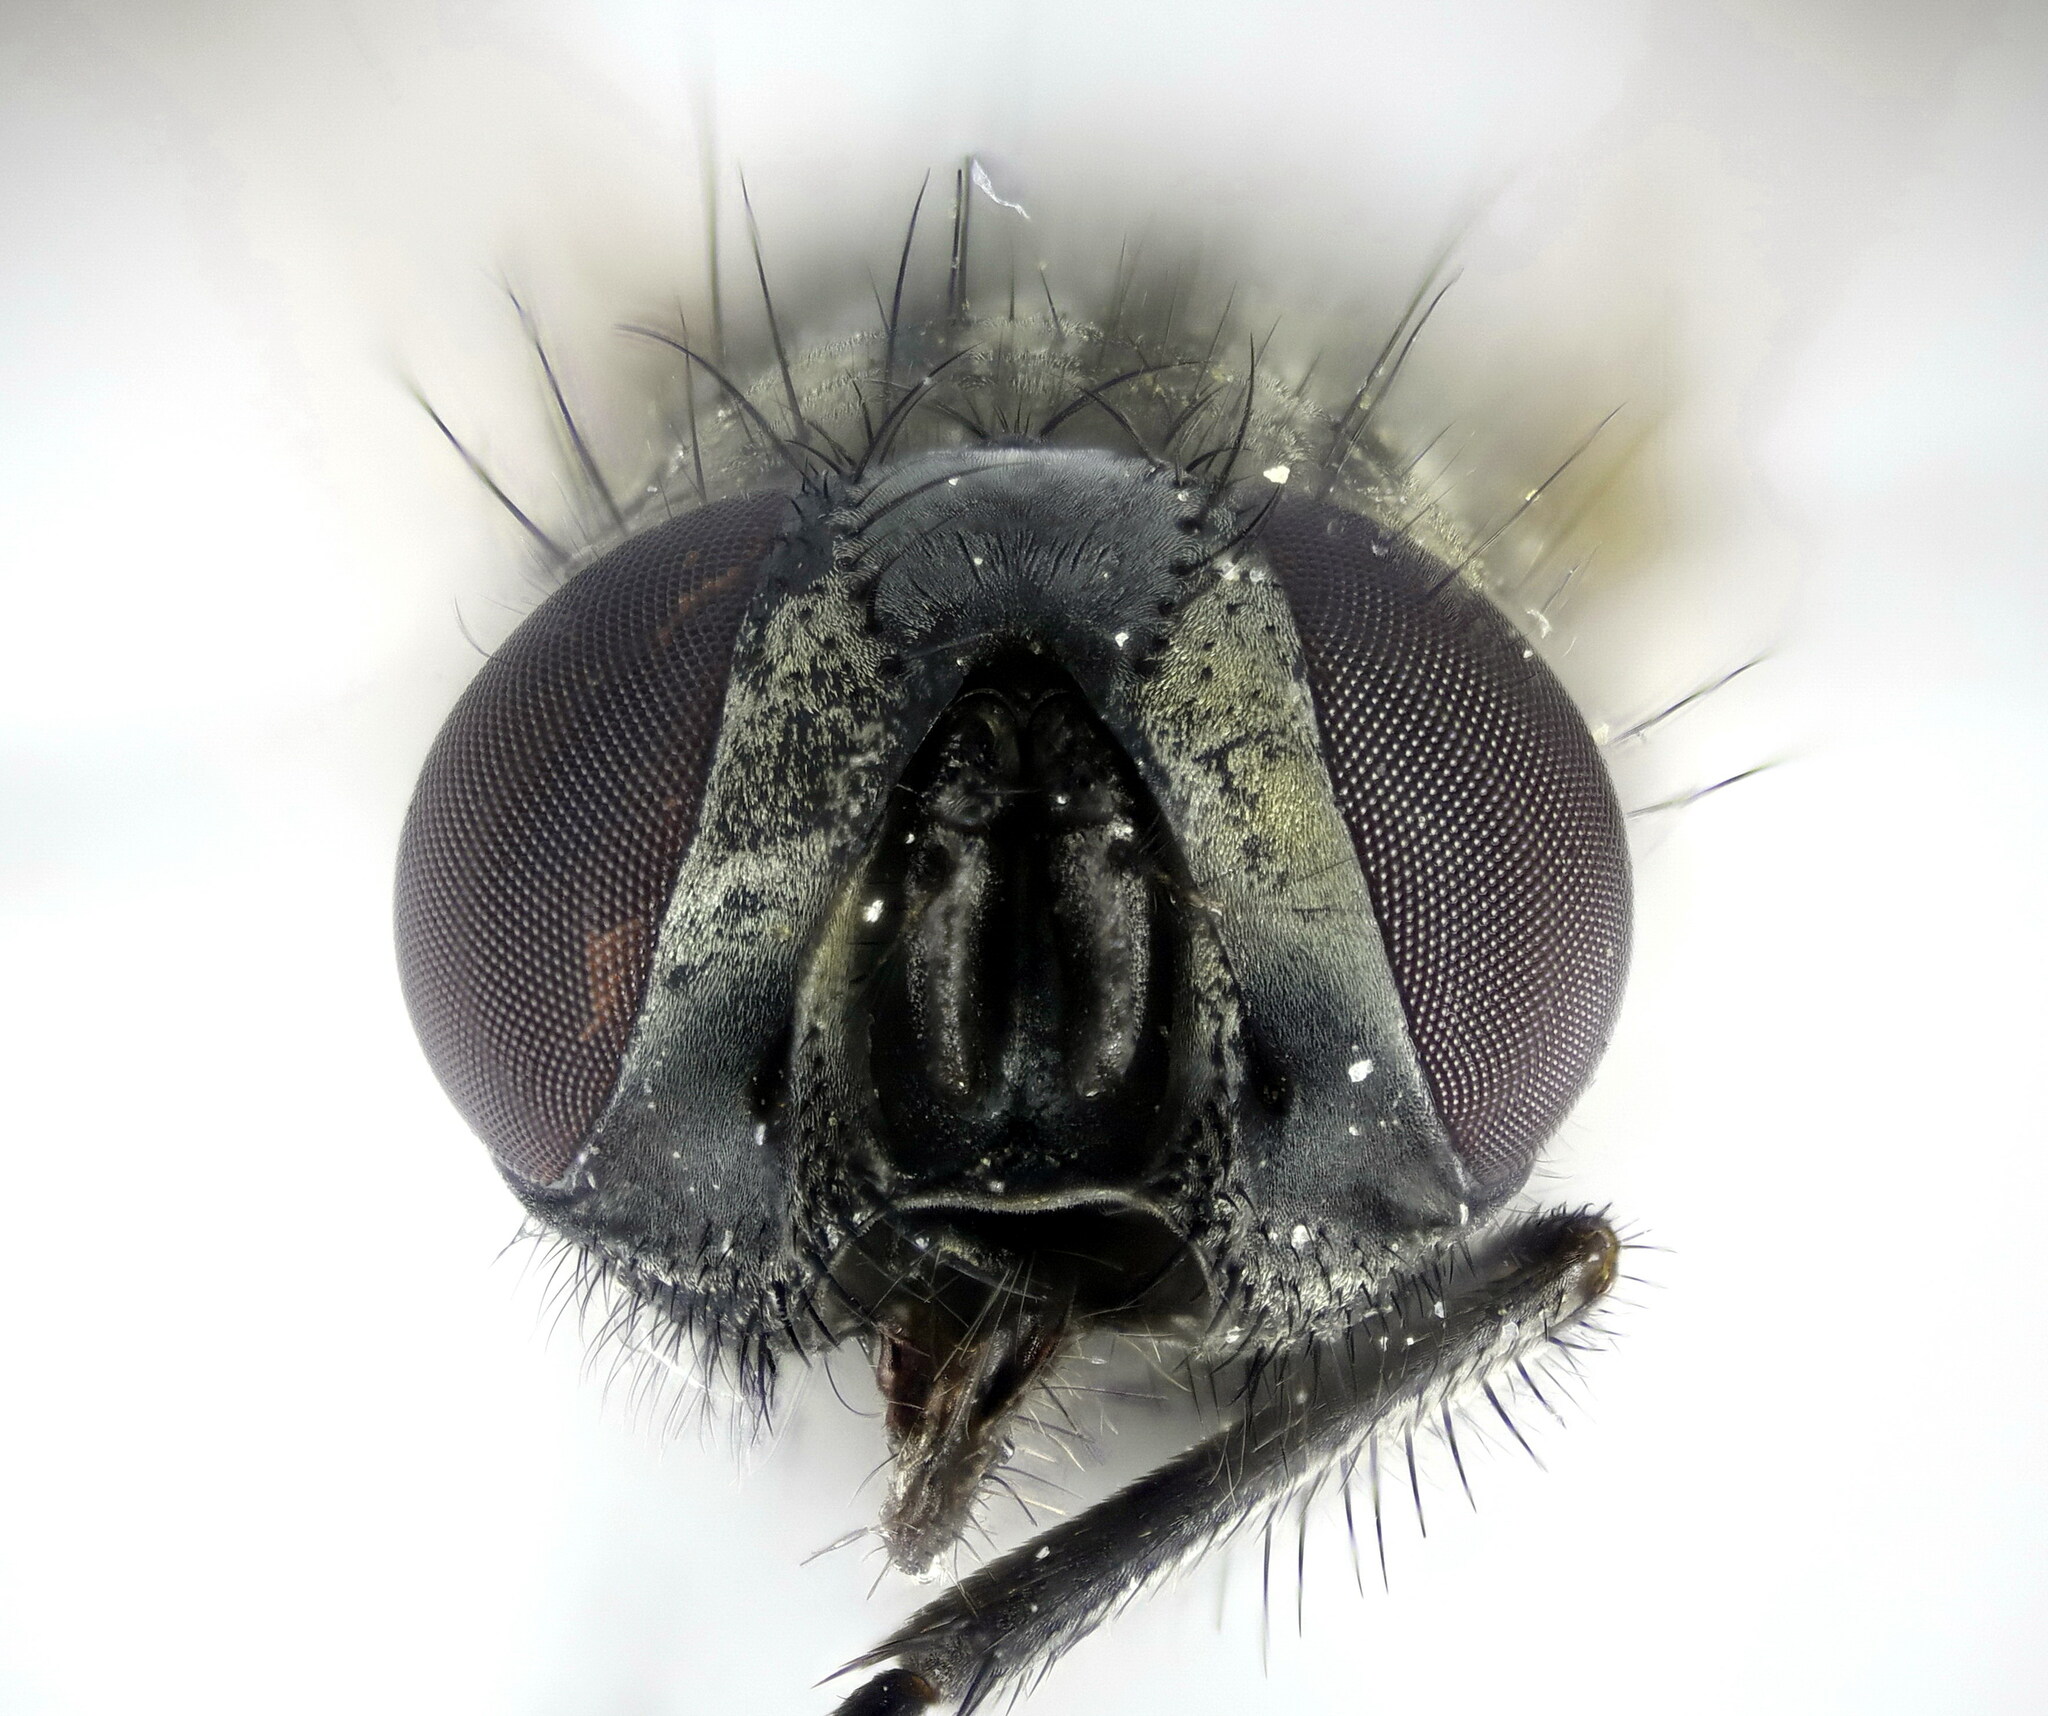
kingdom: Animalia
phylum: Arthropoda
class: Insecta
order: Diptera
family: Muscidae
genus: Musca
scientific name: Musca domestica
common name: House fly
